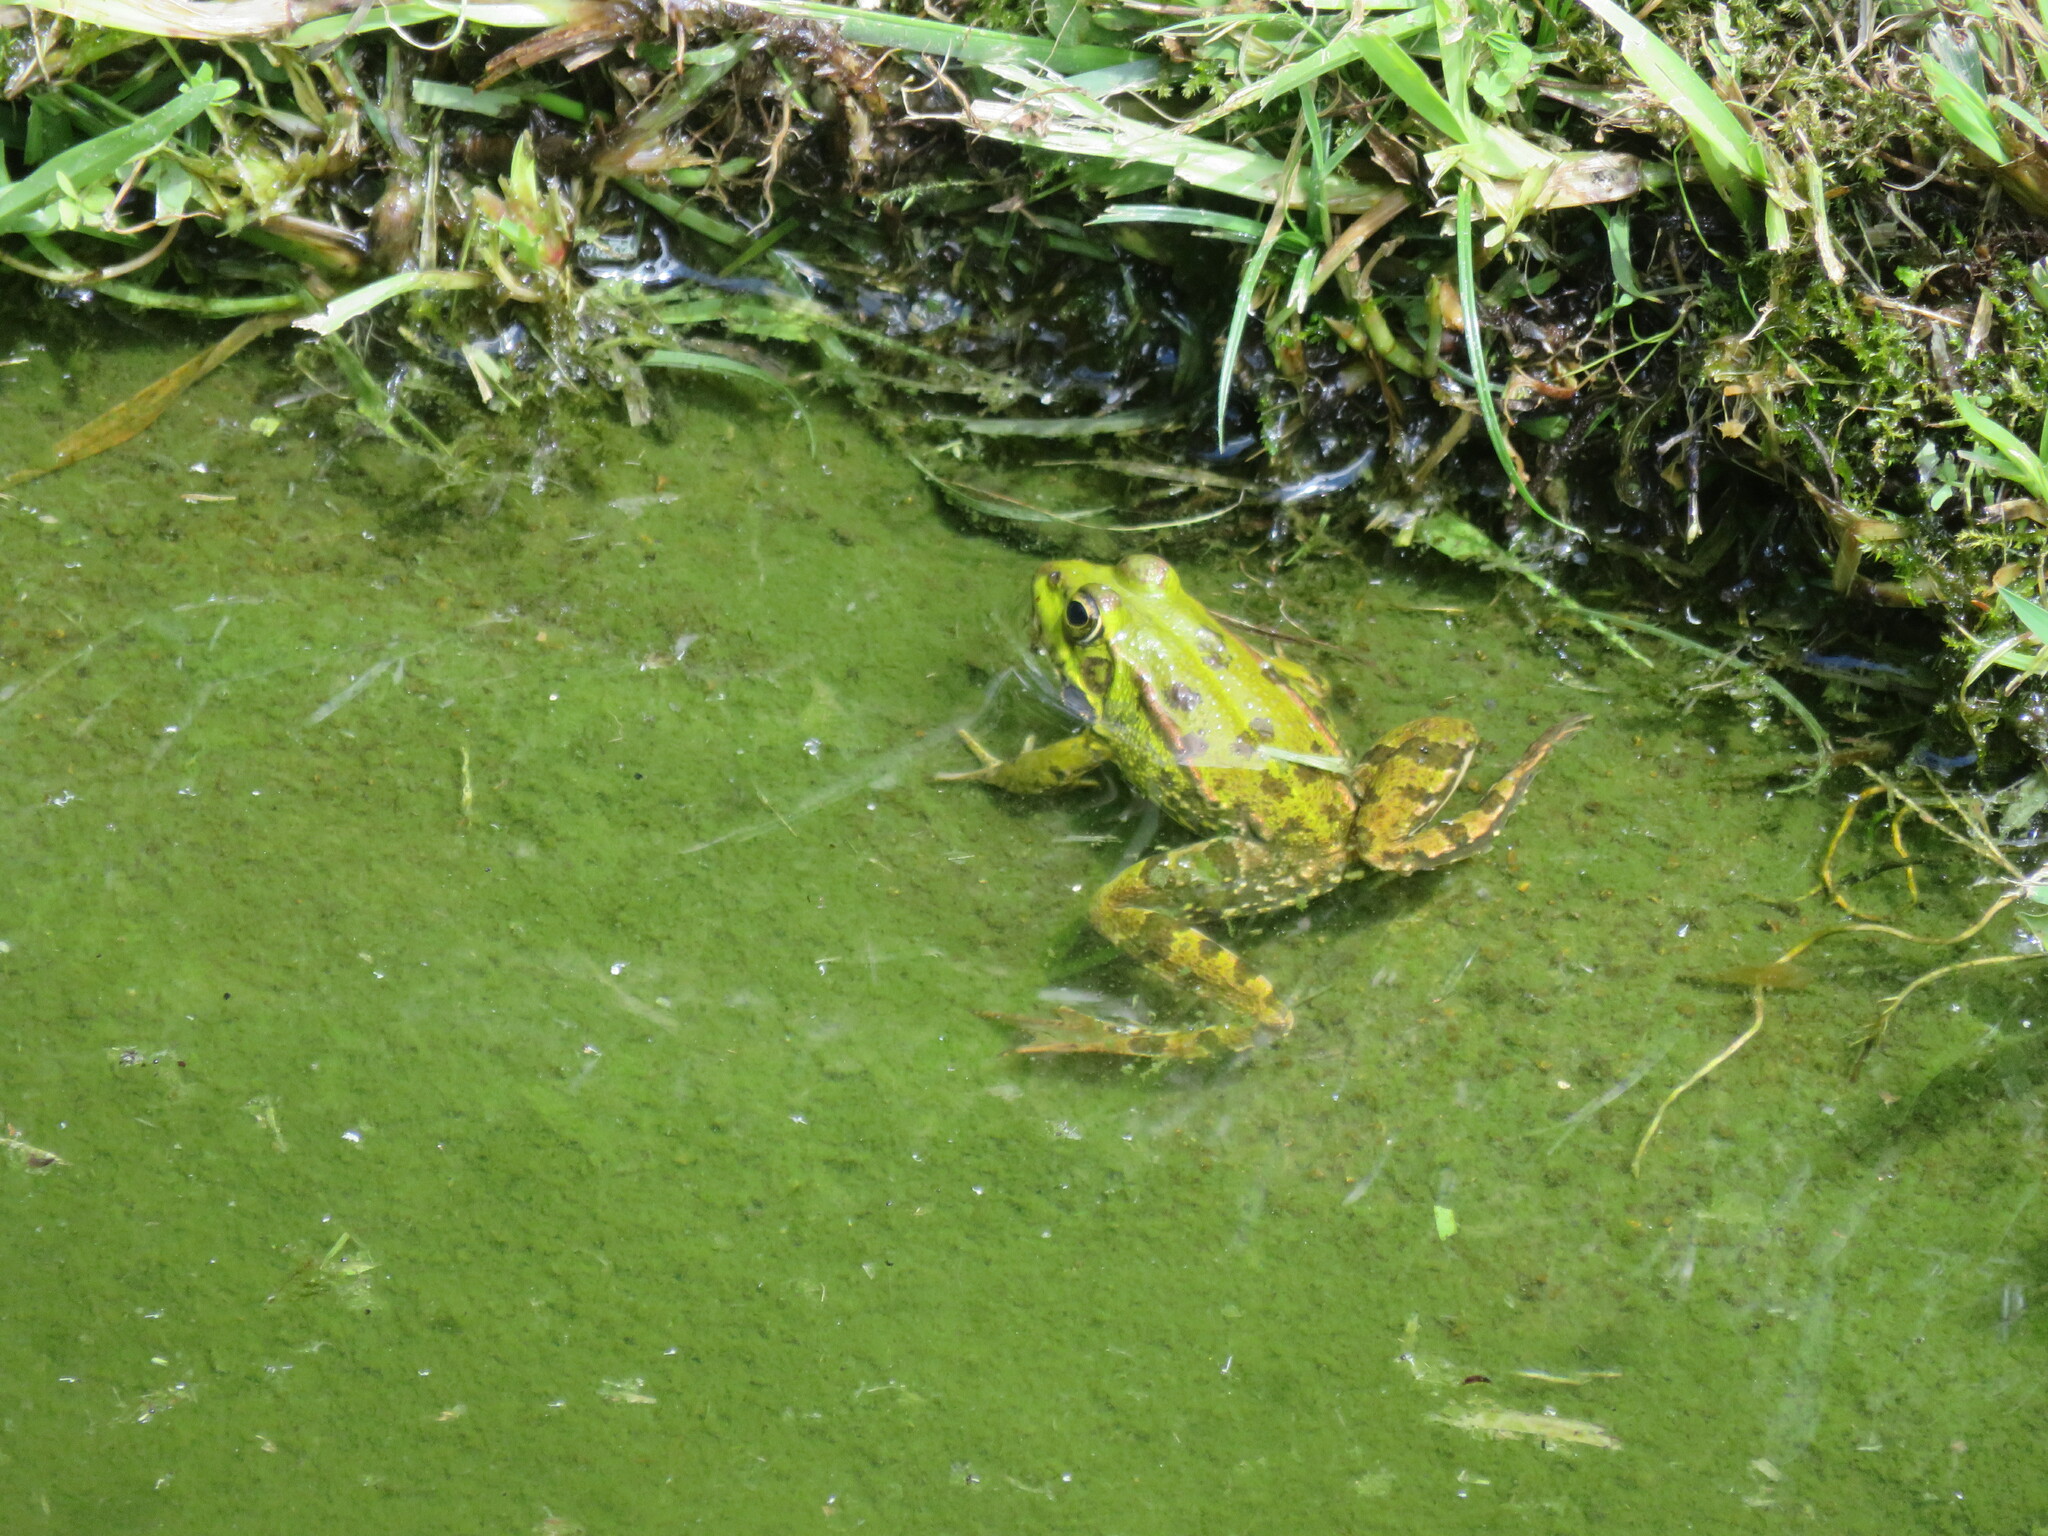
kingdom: Animalia
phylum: Chordata
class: Amphibia
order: Anura
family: Ranidae
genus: Pelophylax
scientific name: Pelophylax perezi
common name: Perez's frog
